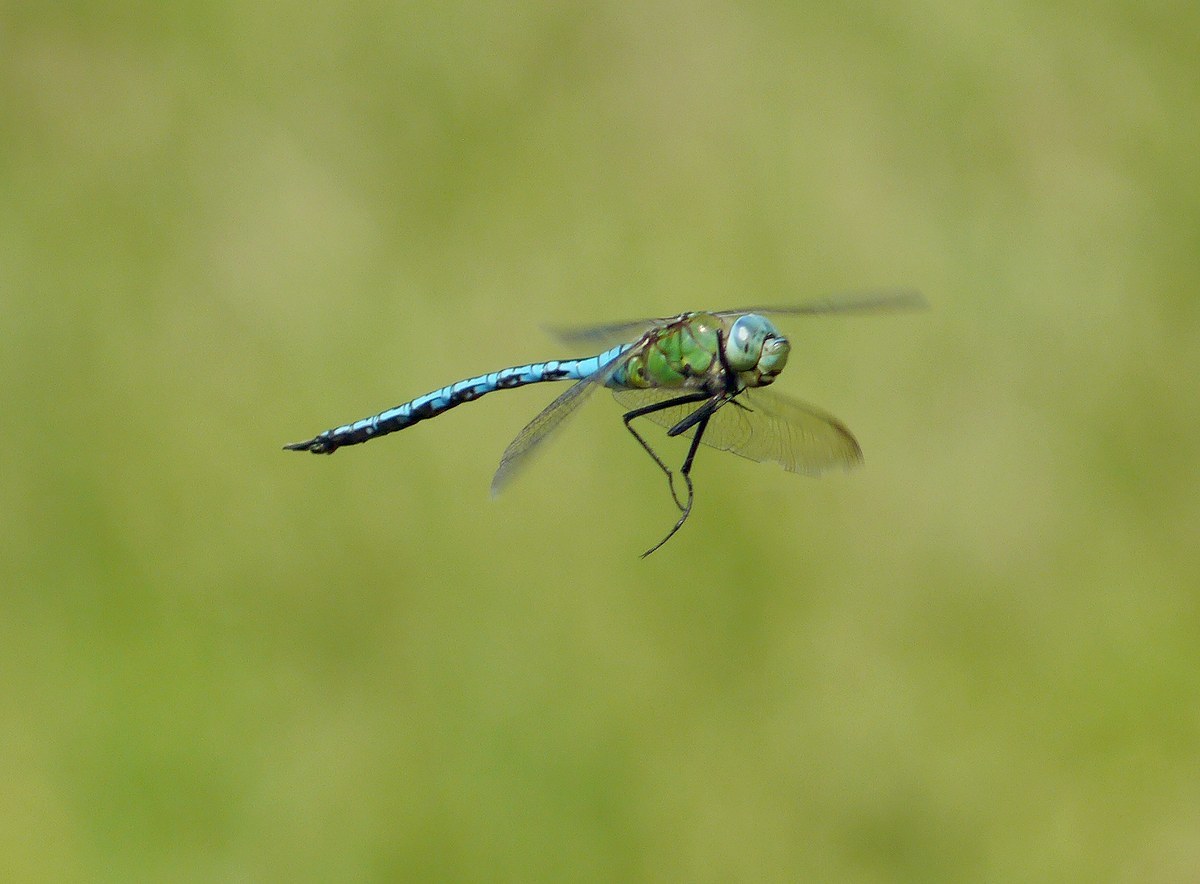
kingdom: Animalia
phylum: Arthropoda
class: Insecta
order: Odonata
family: Aeshnidae
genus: Anax
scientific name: Anax imperator
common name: Emperor dragonfly
